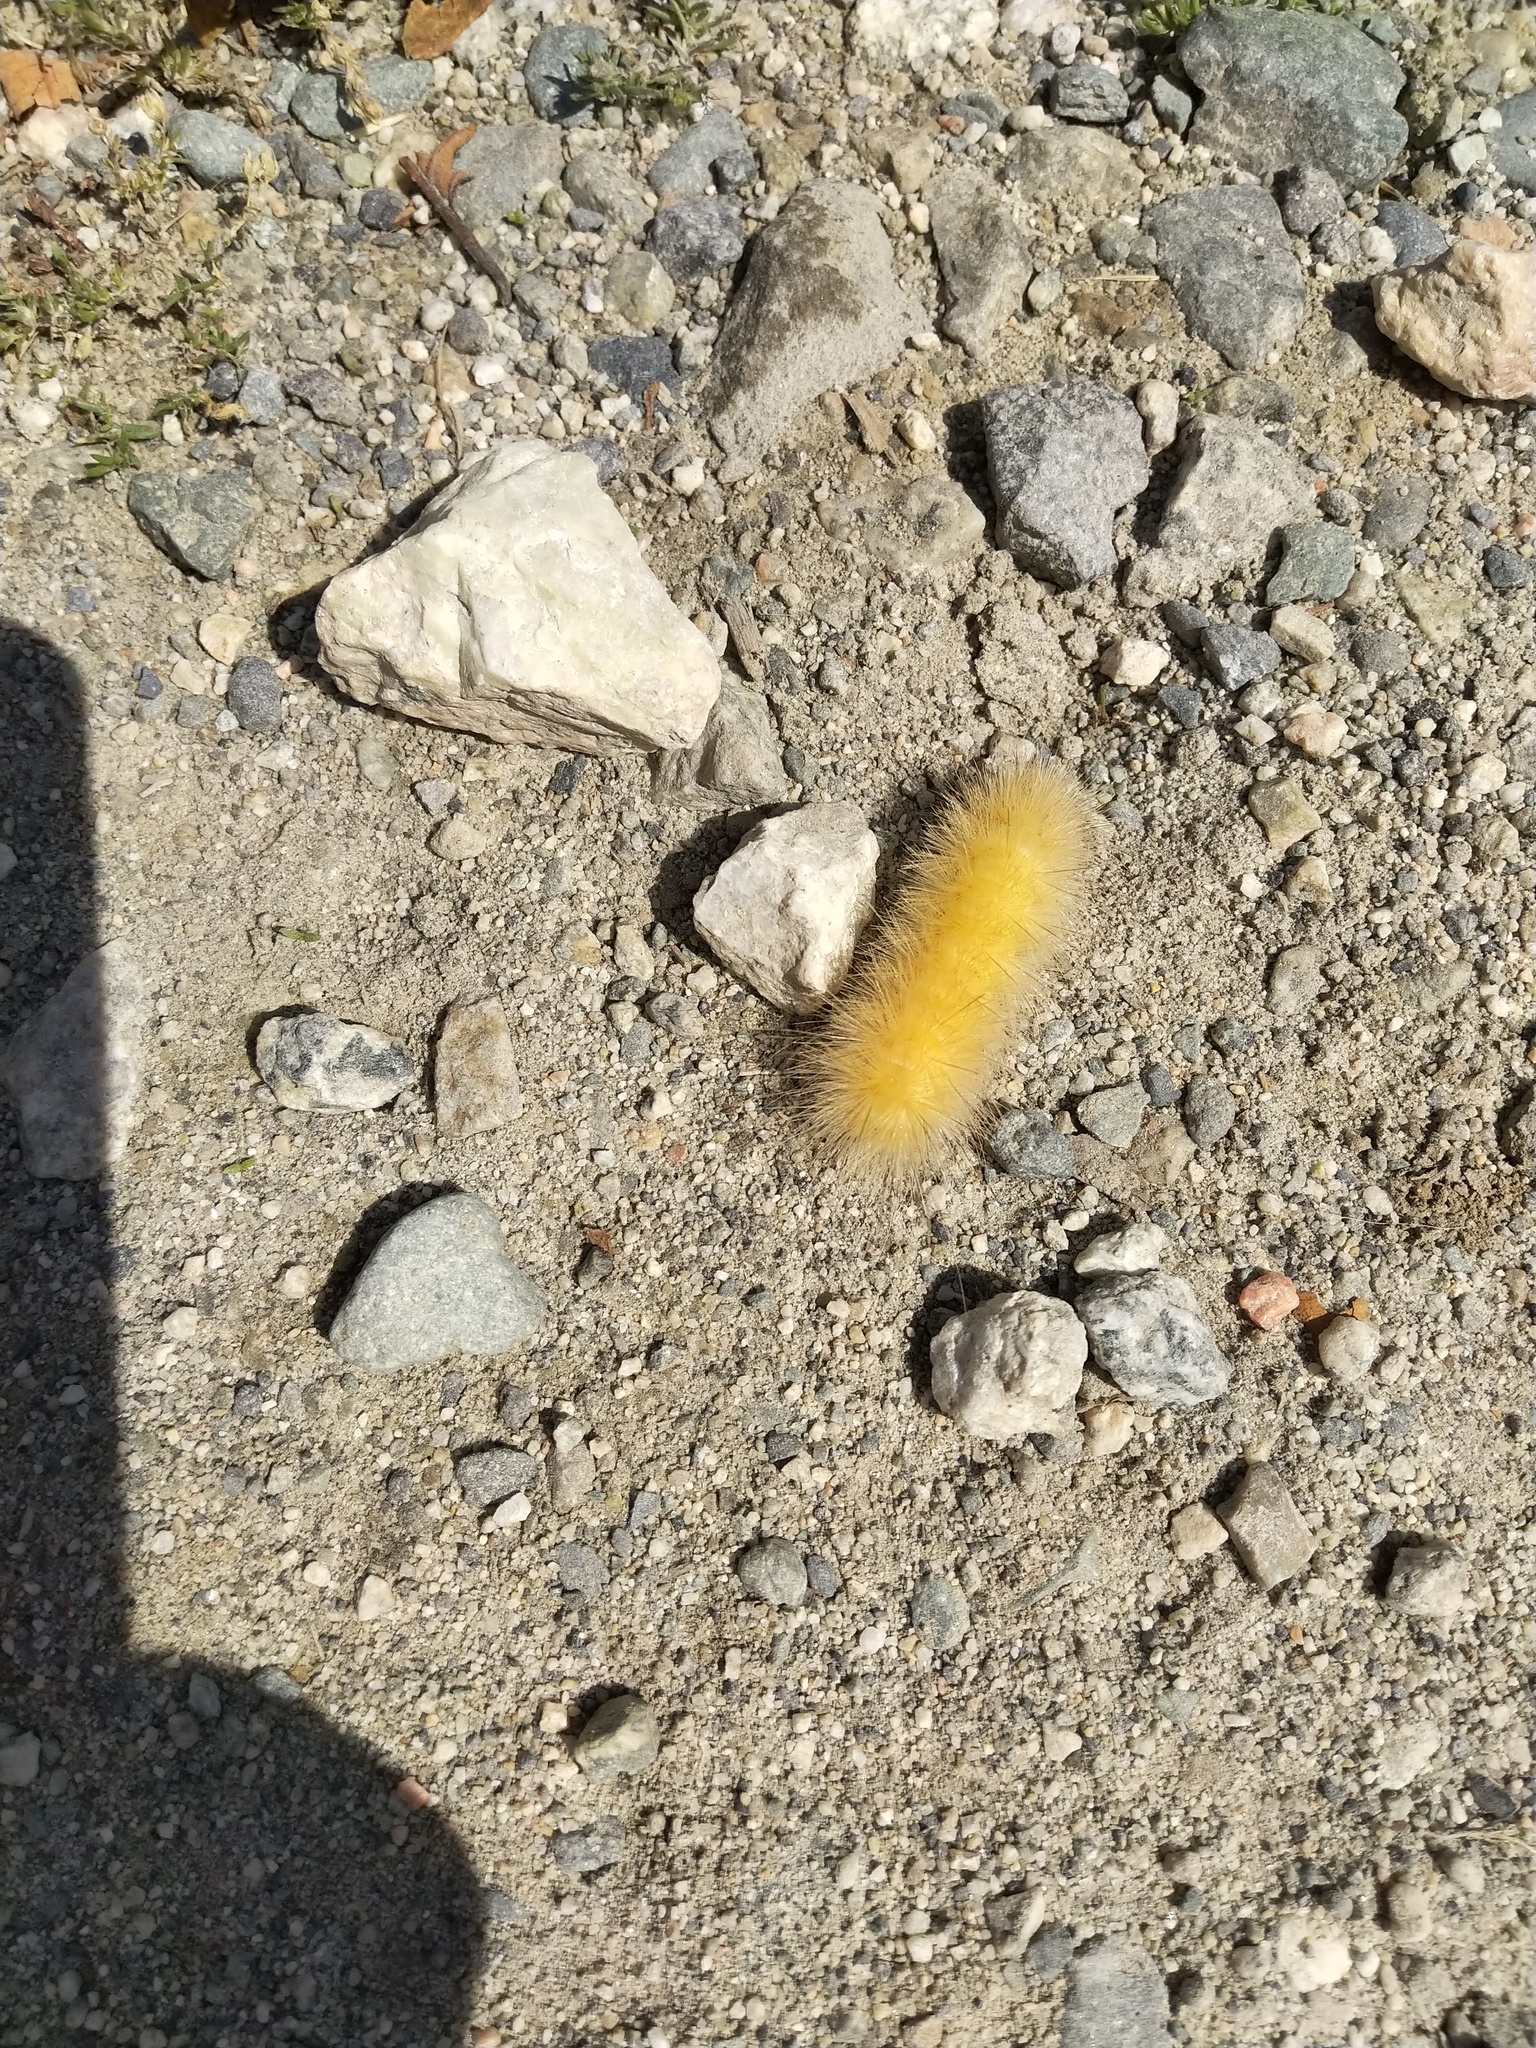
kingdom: Animalia
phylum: Arthropoda
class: Insecta
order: Lepidoptera
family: Erebidae
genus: Spilosoma
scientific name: Spilosoma virginica
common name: Virginia tiger moth
